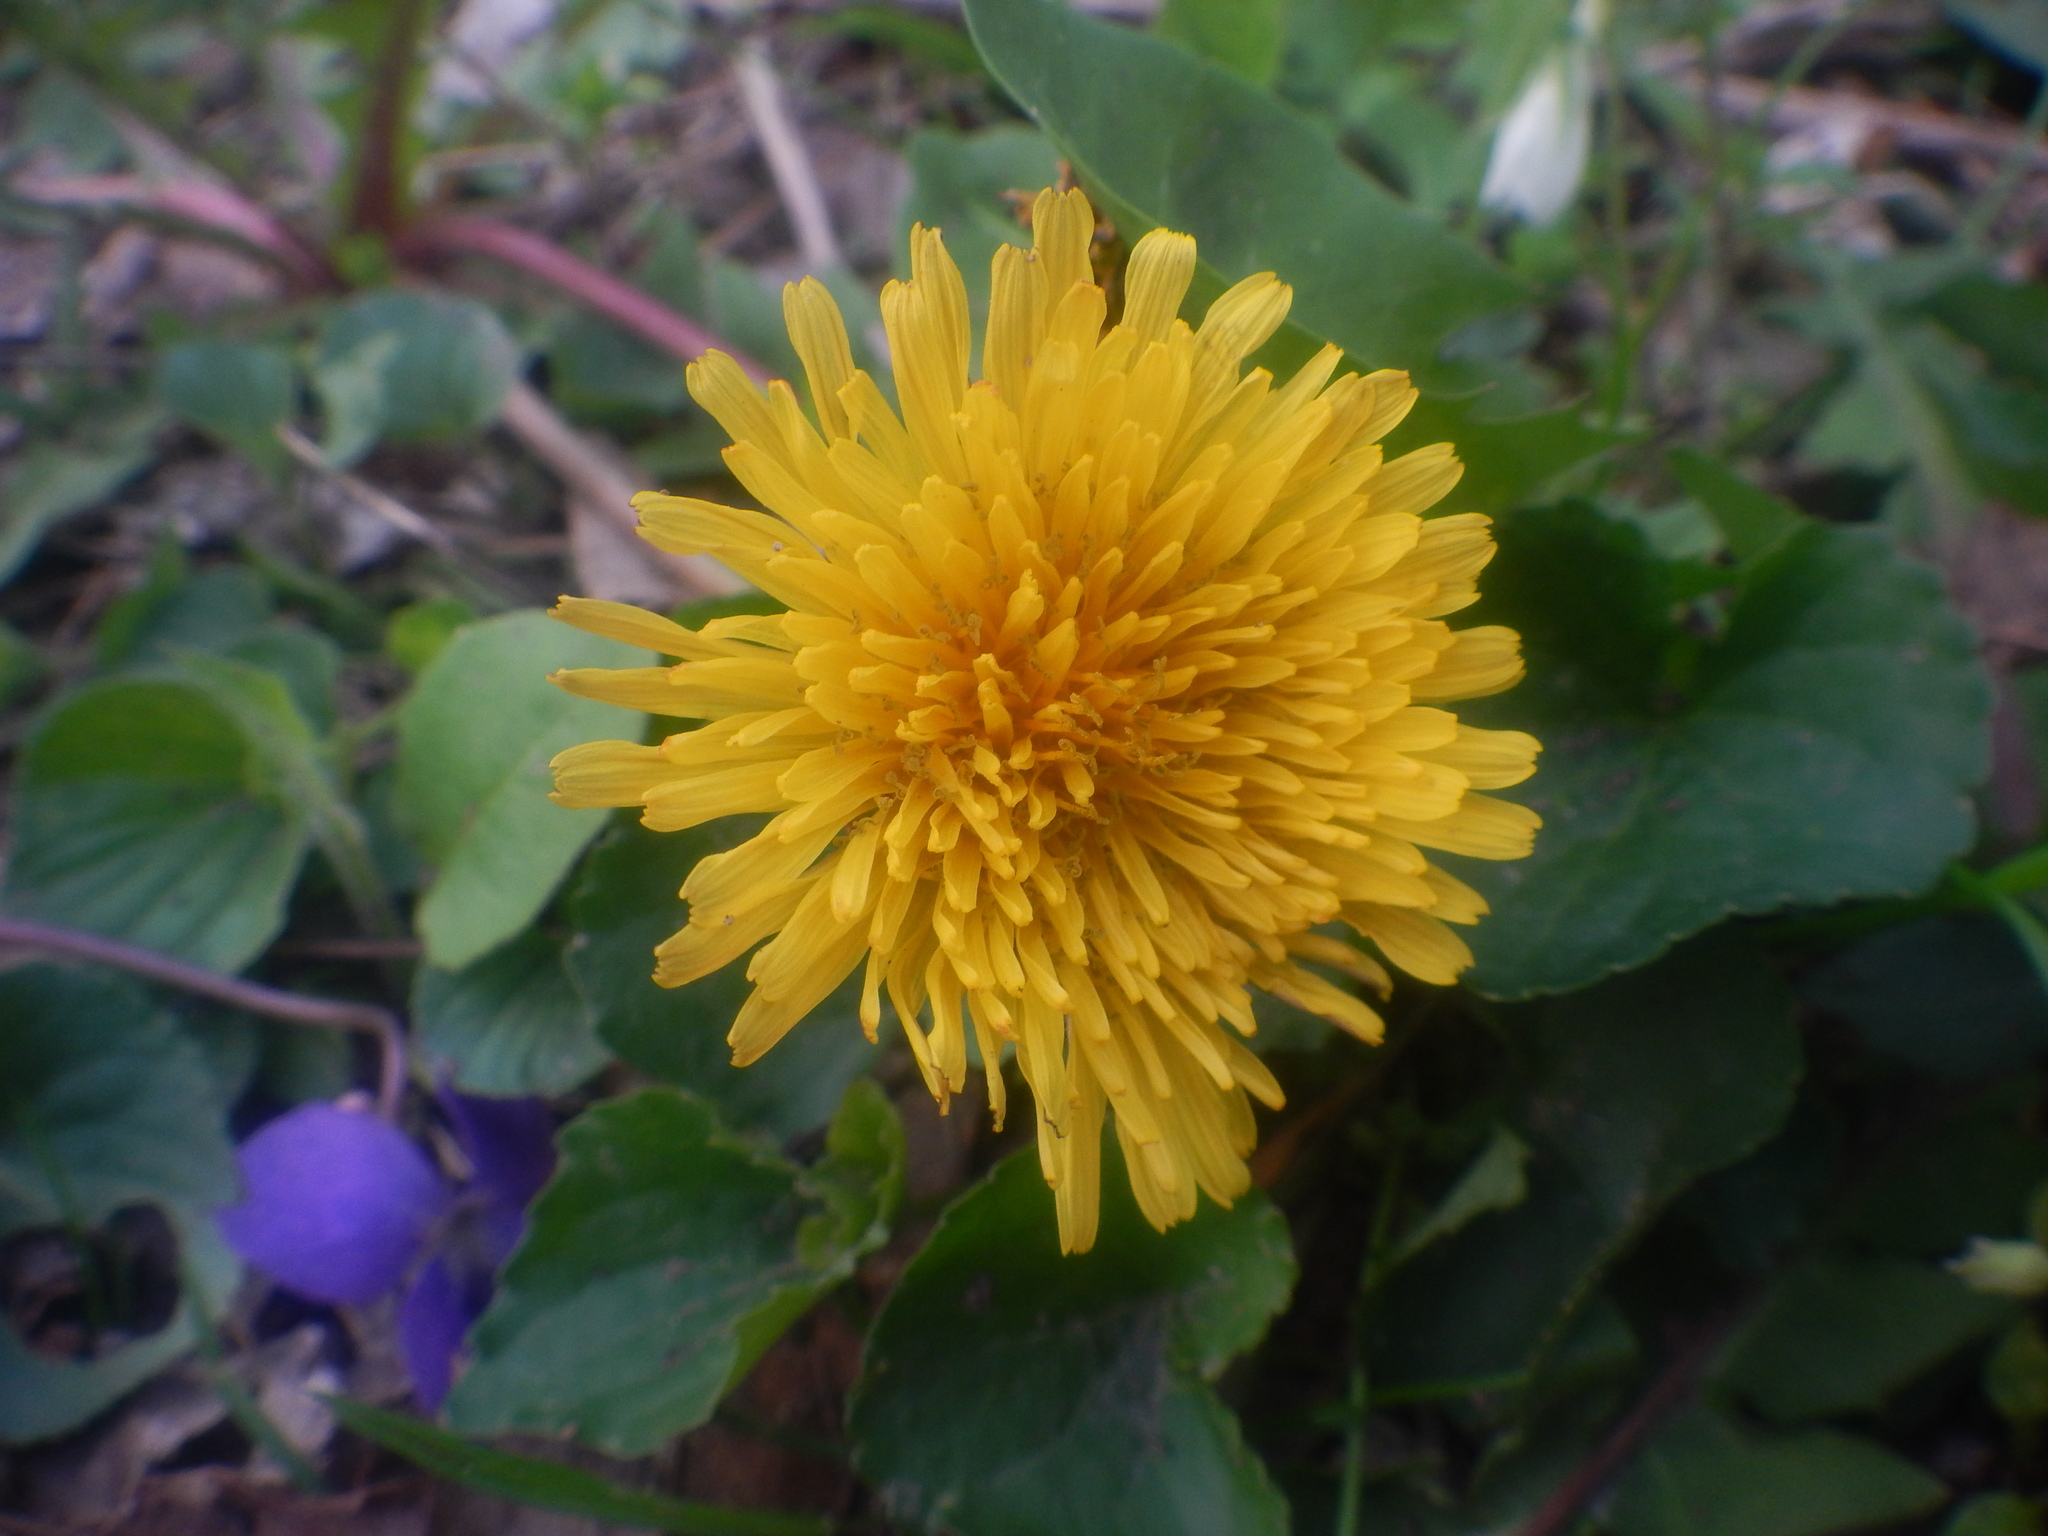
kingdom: Plantae
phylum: Tracheophyta
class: Magnoliopsida
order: Asterales
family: Asteraceae
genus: Taraxacum
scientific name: Taraxacum
